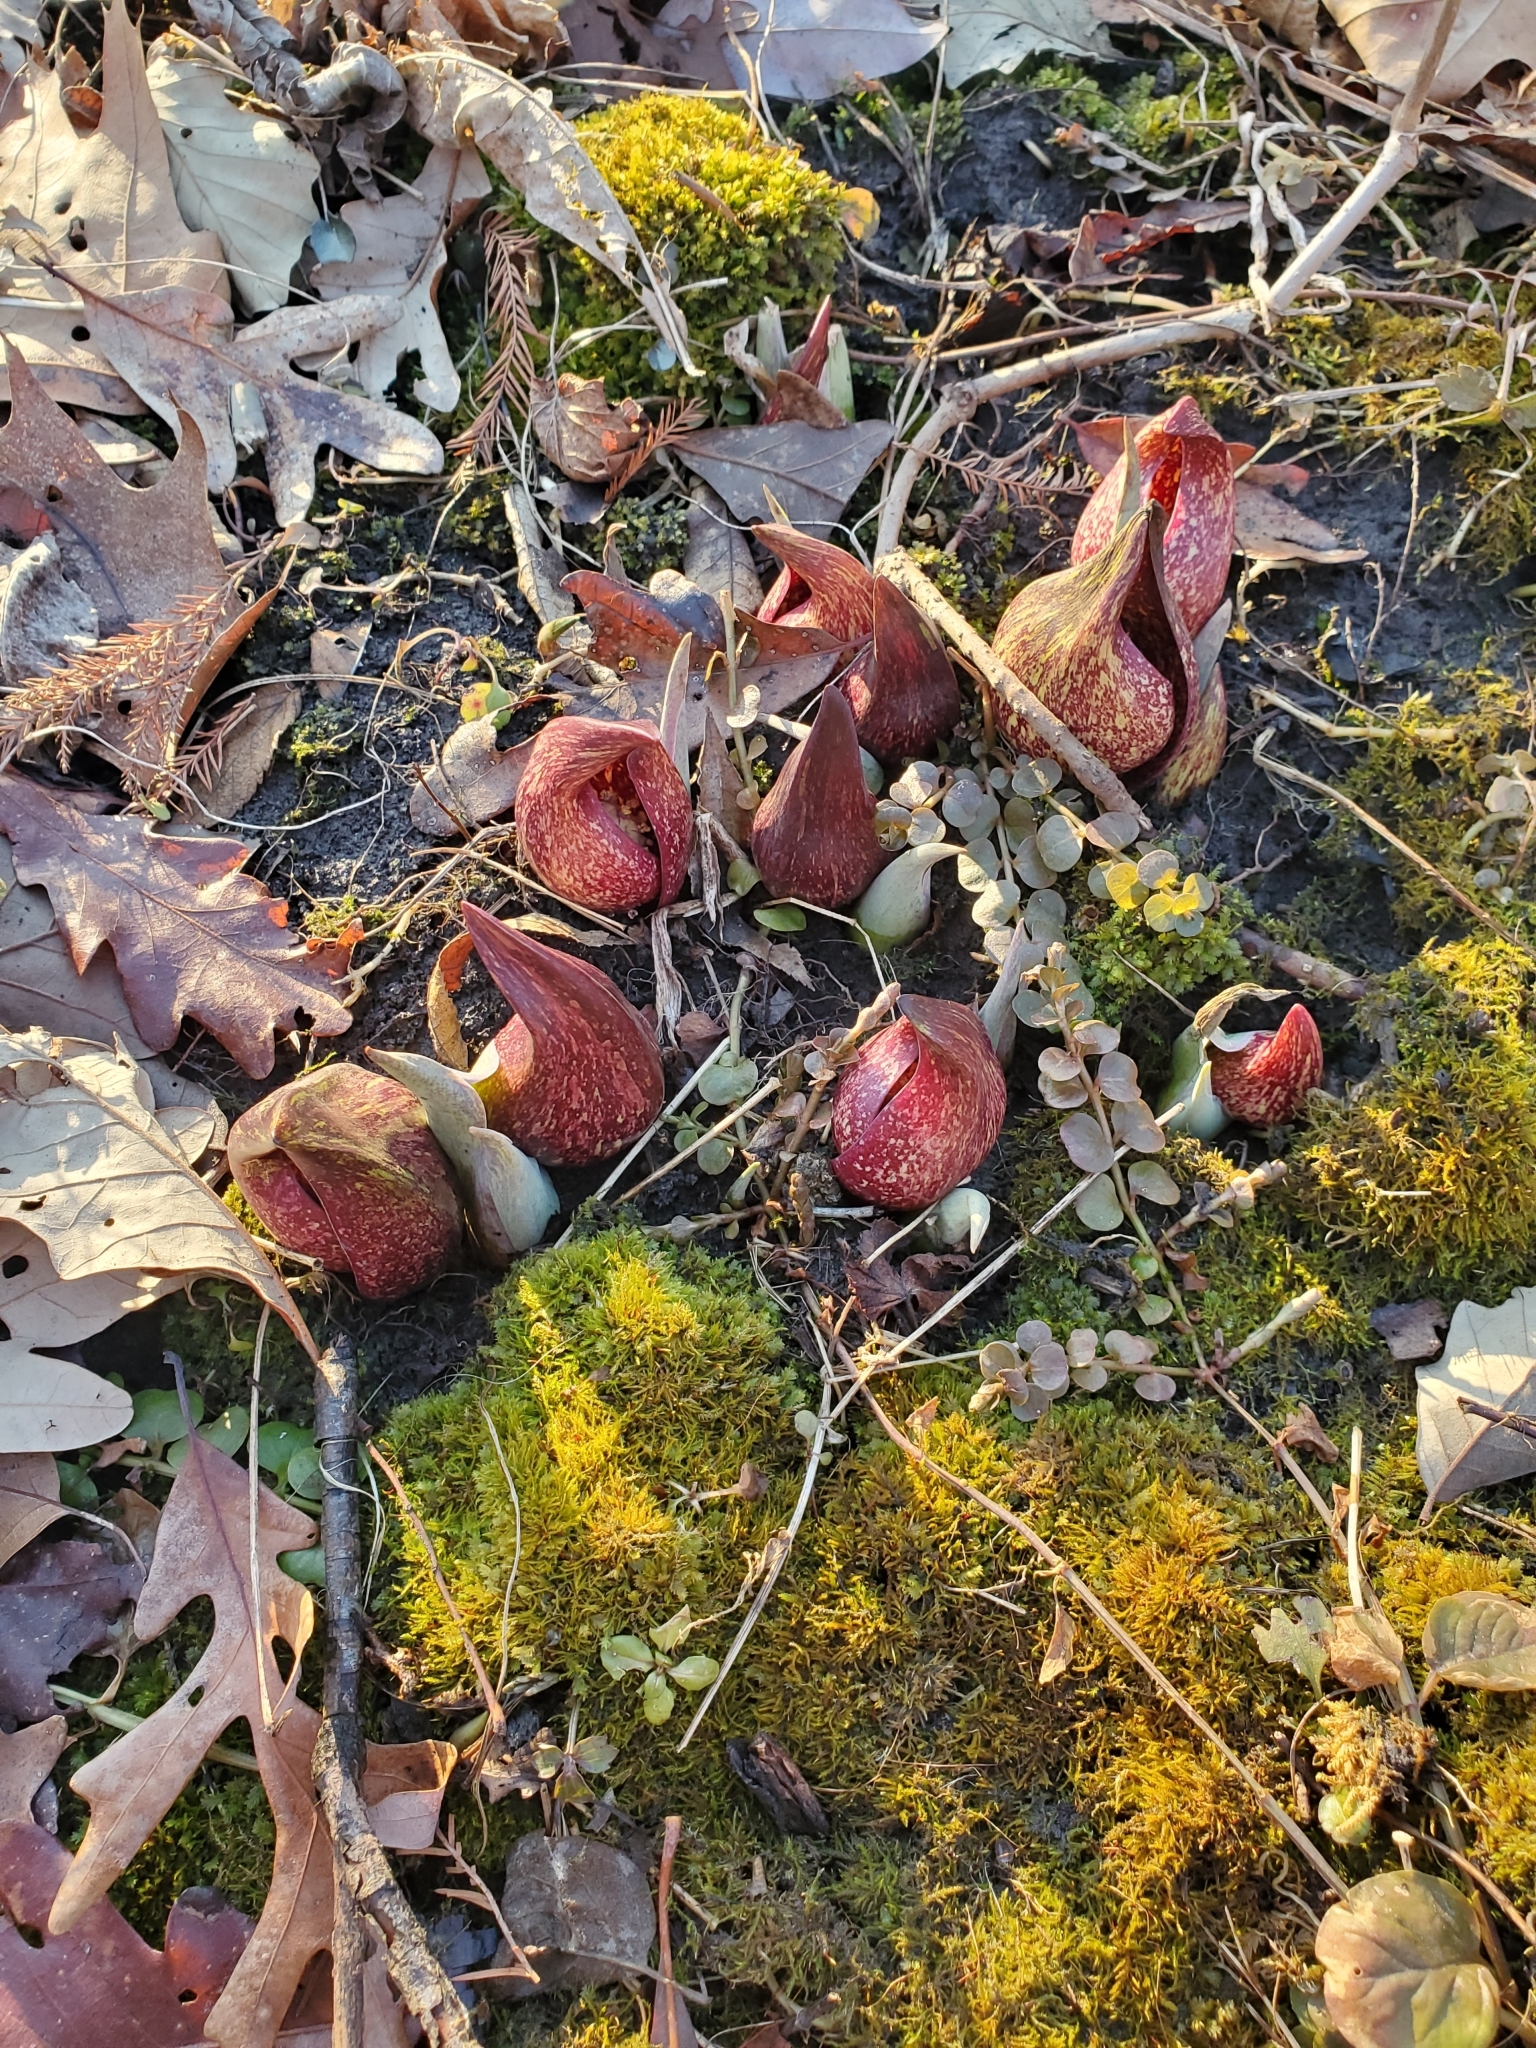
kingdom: Plantae
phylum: Tracheophyta
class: Liliopsida
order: Alismatales
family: Araceae
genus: Symplocarpus
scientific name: Symplocarpus foetidus
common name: Eastern skunk cabbage
